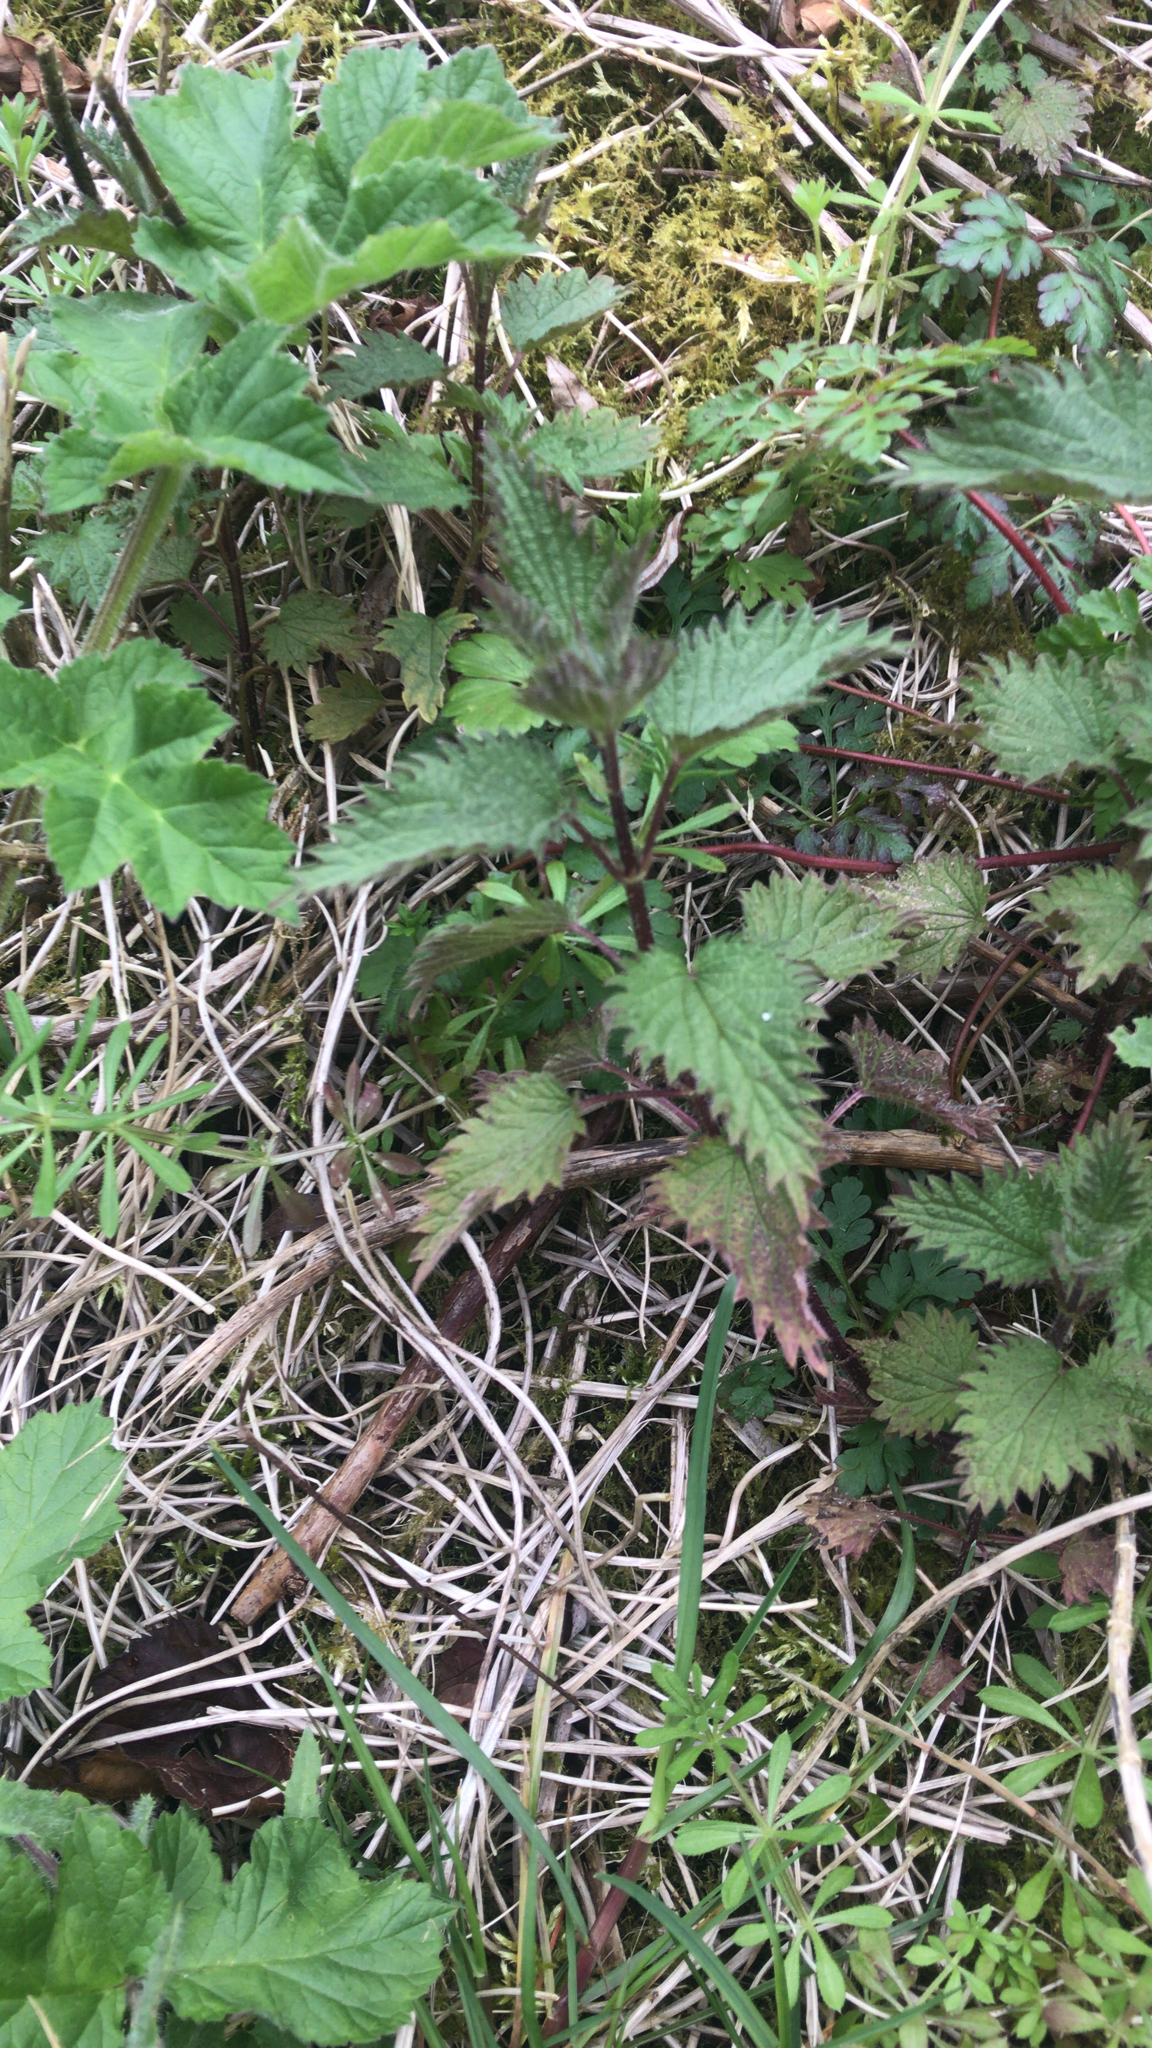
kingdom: Plantae
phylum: Tracheophyta
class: Magnoliopsida
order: Rosales
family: Urticaceae
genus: Urtica
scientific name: Urtica dioica
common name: Common nettle
